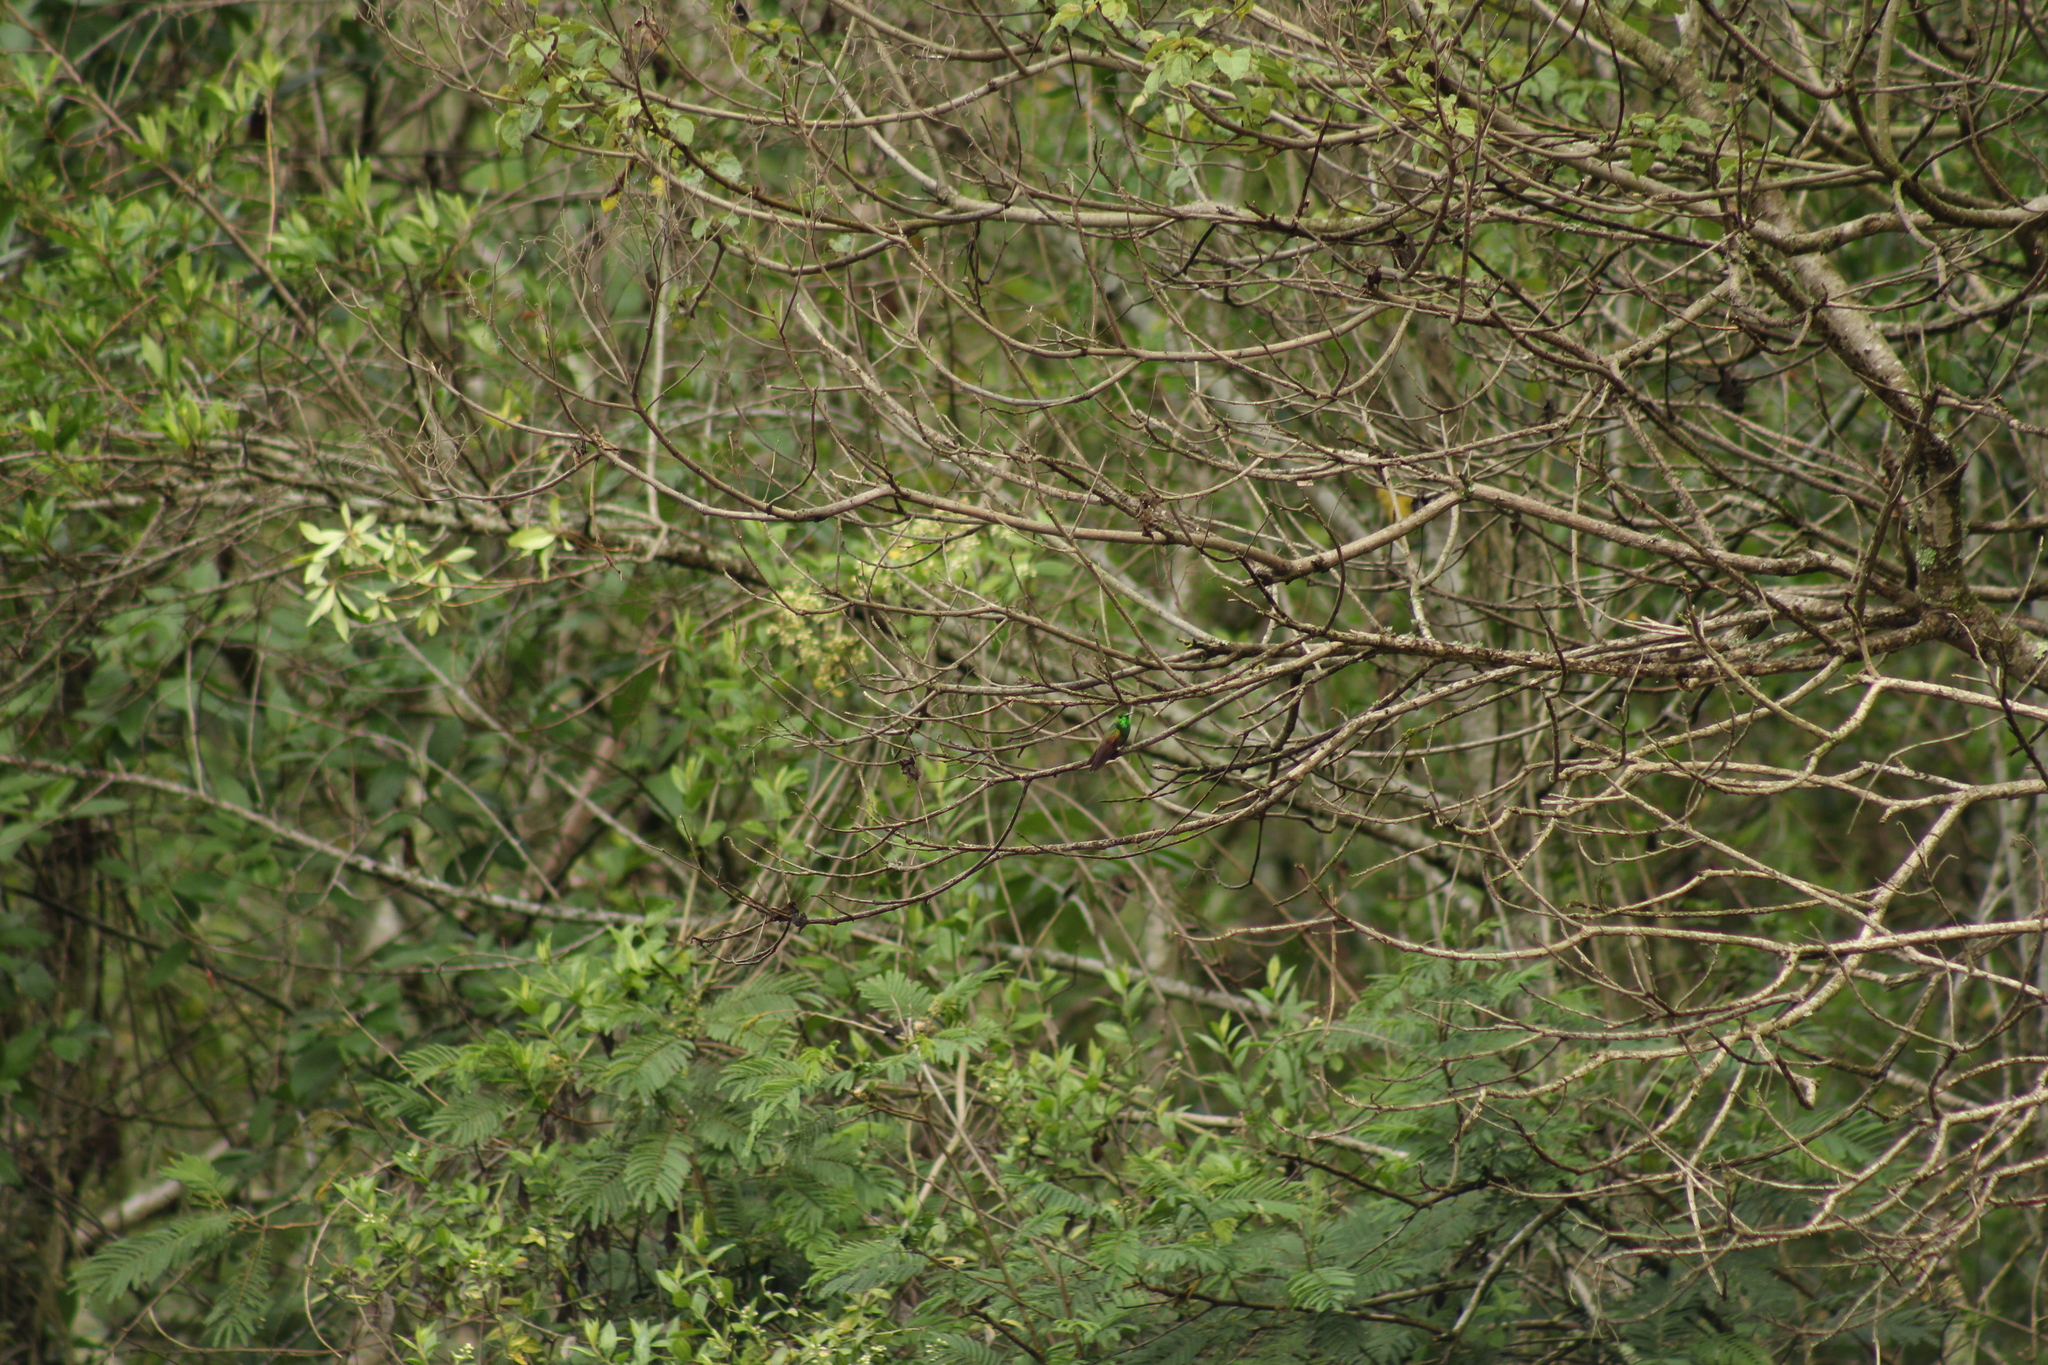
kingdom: Animalia
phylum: Chordata
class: Aves
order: Apodiformes
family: Trochilidae
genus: Saucerottia
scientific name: Saucerottia beryllina
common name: Berylline hummingbird
